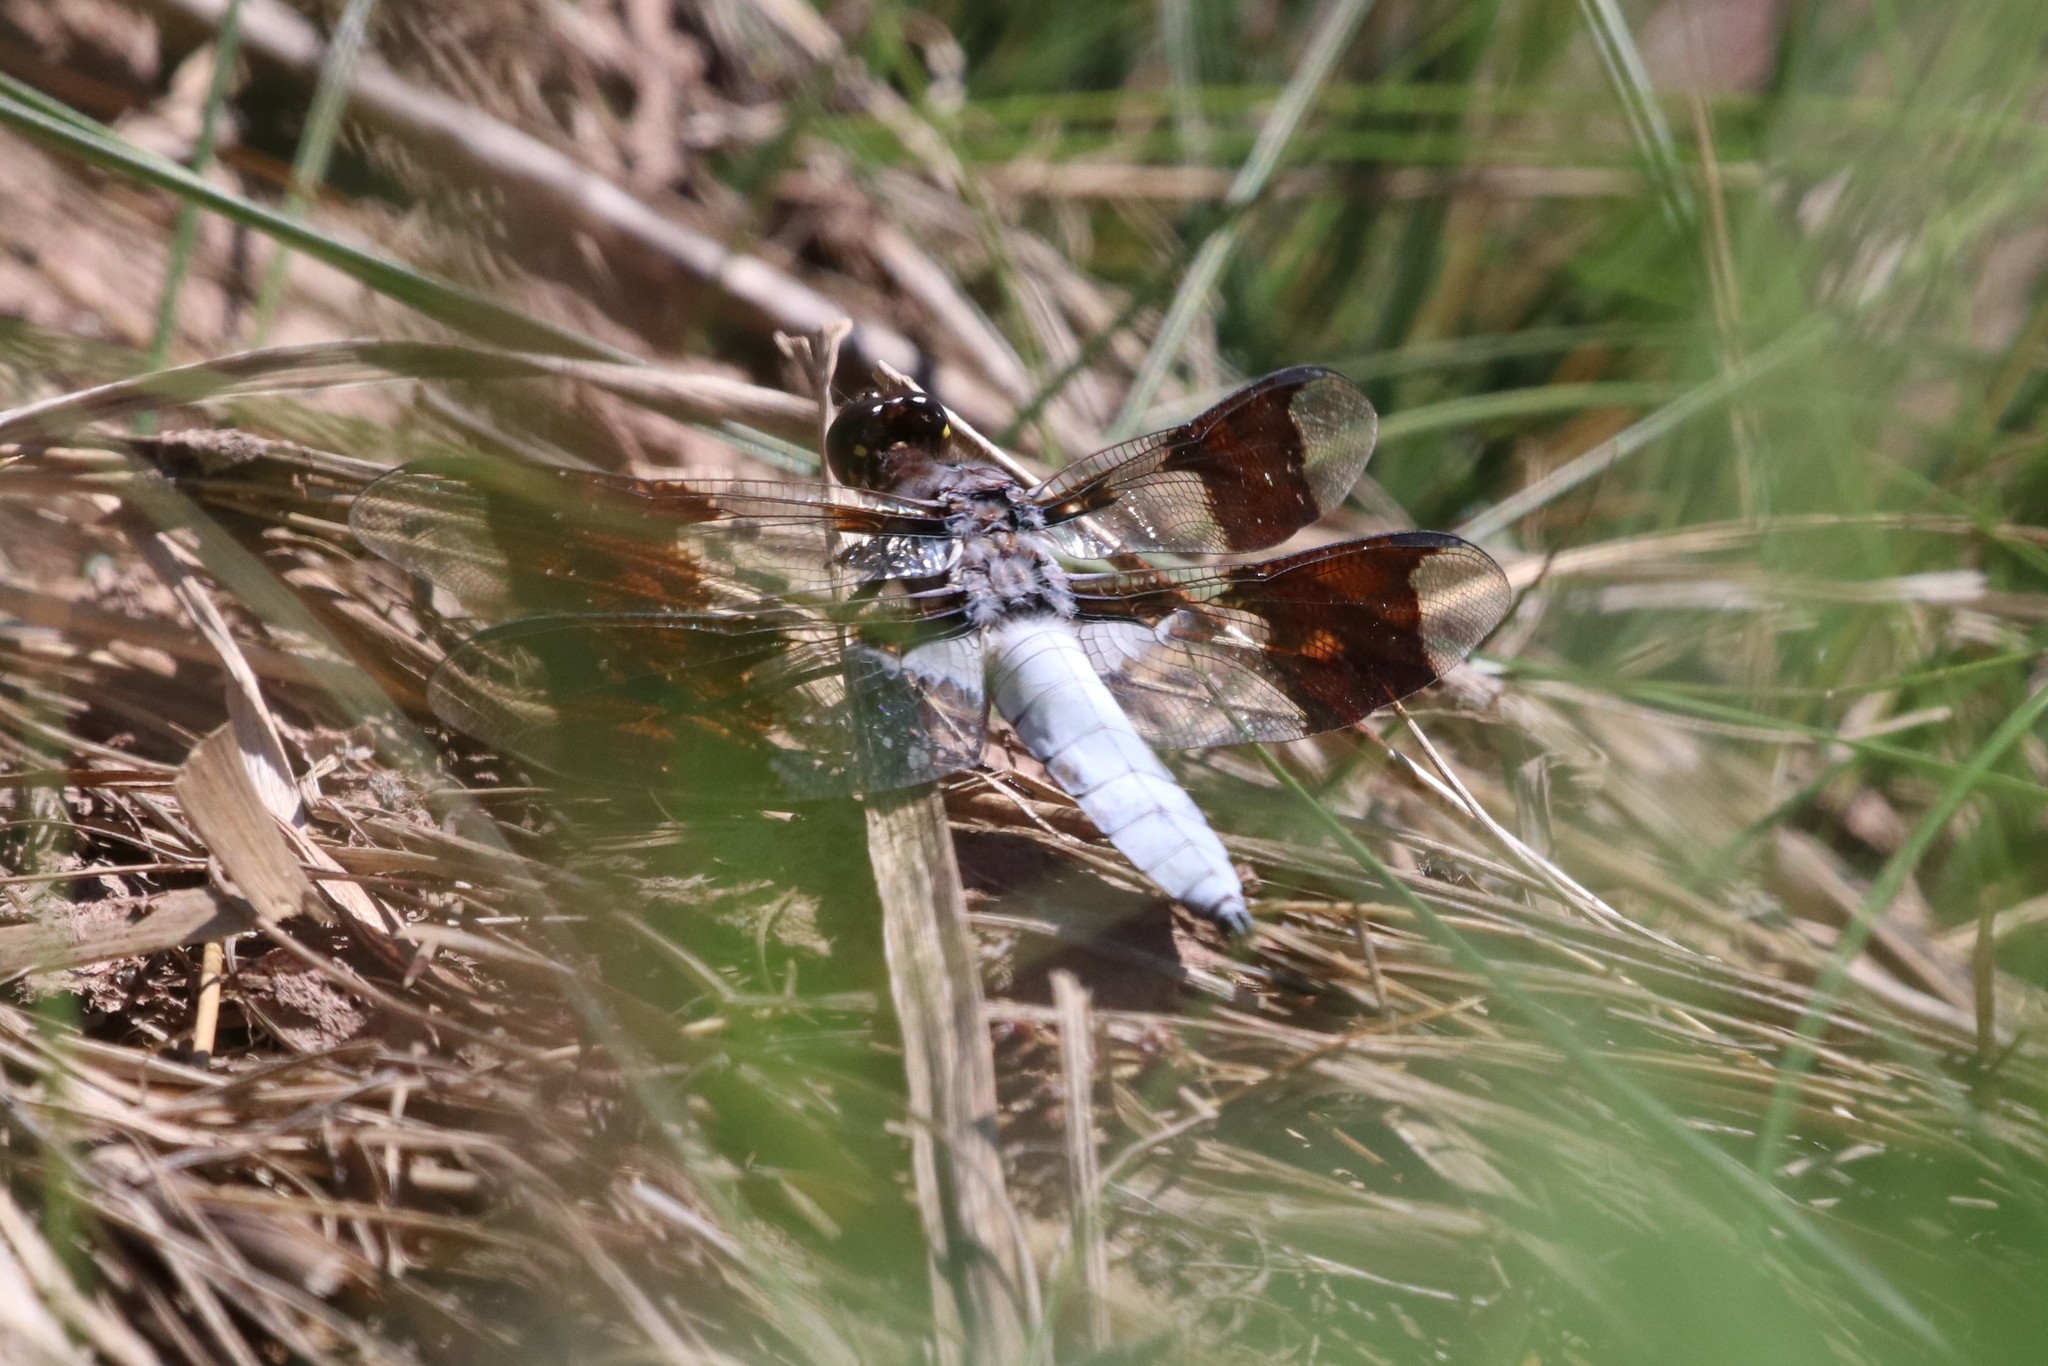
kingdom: Animalia
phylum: Arthropoda
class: Insecta
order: Odonata
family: Libellulidae
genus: Plathemis
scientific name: Plathemis lydia
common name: Common whitetail
